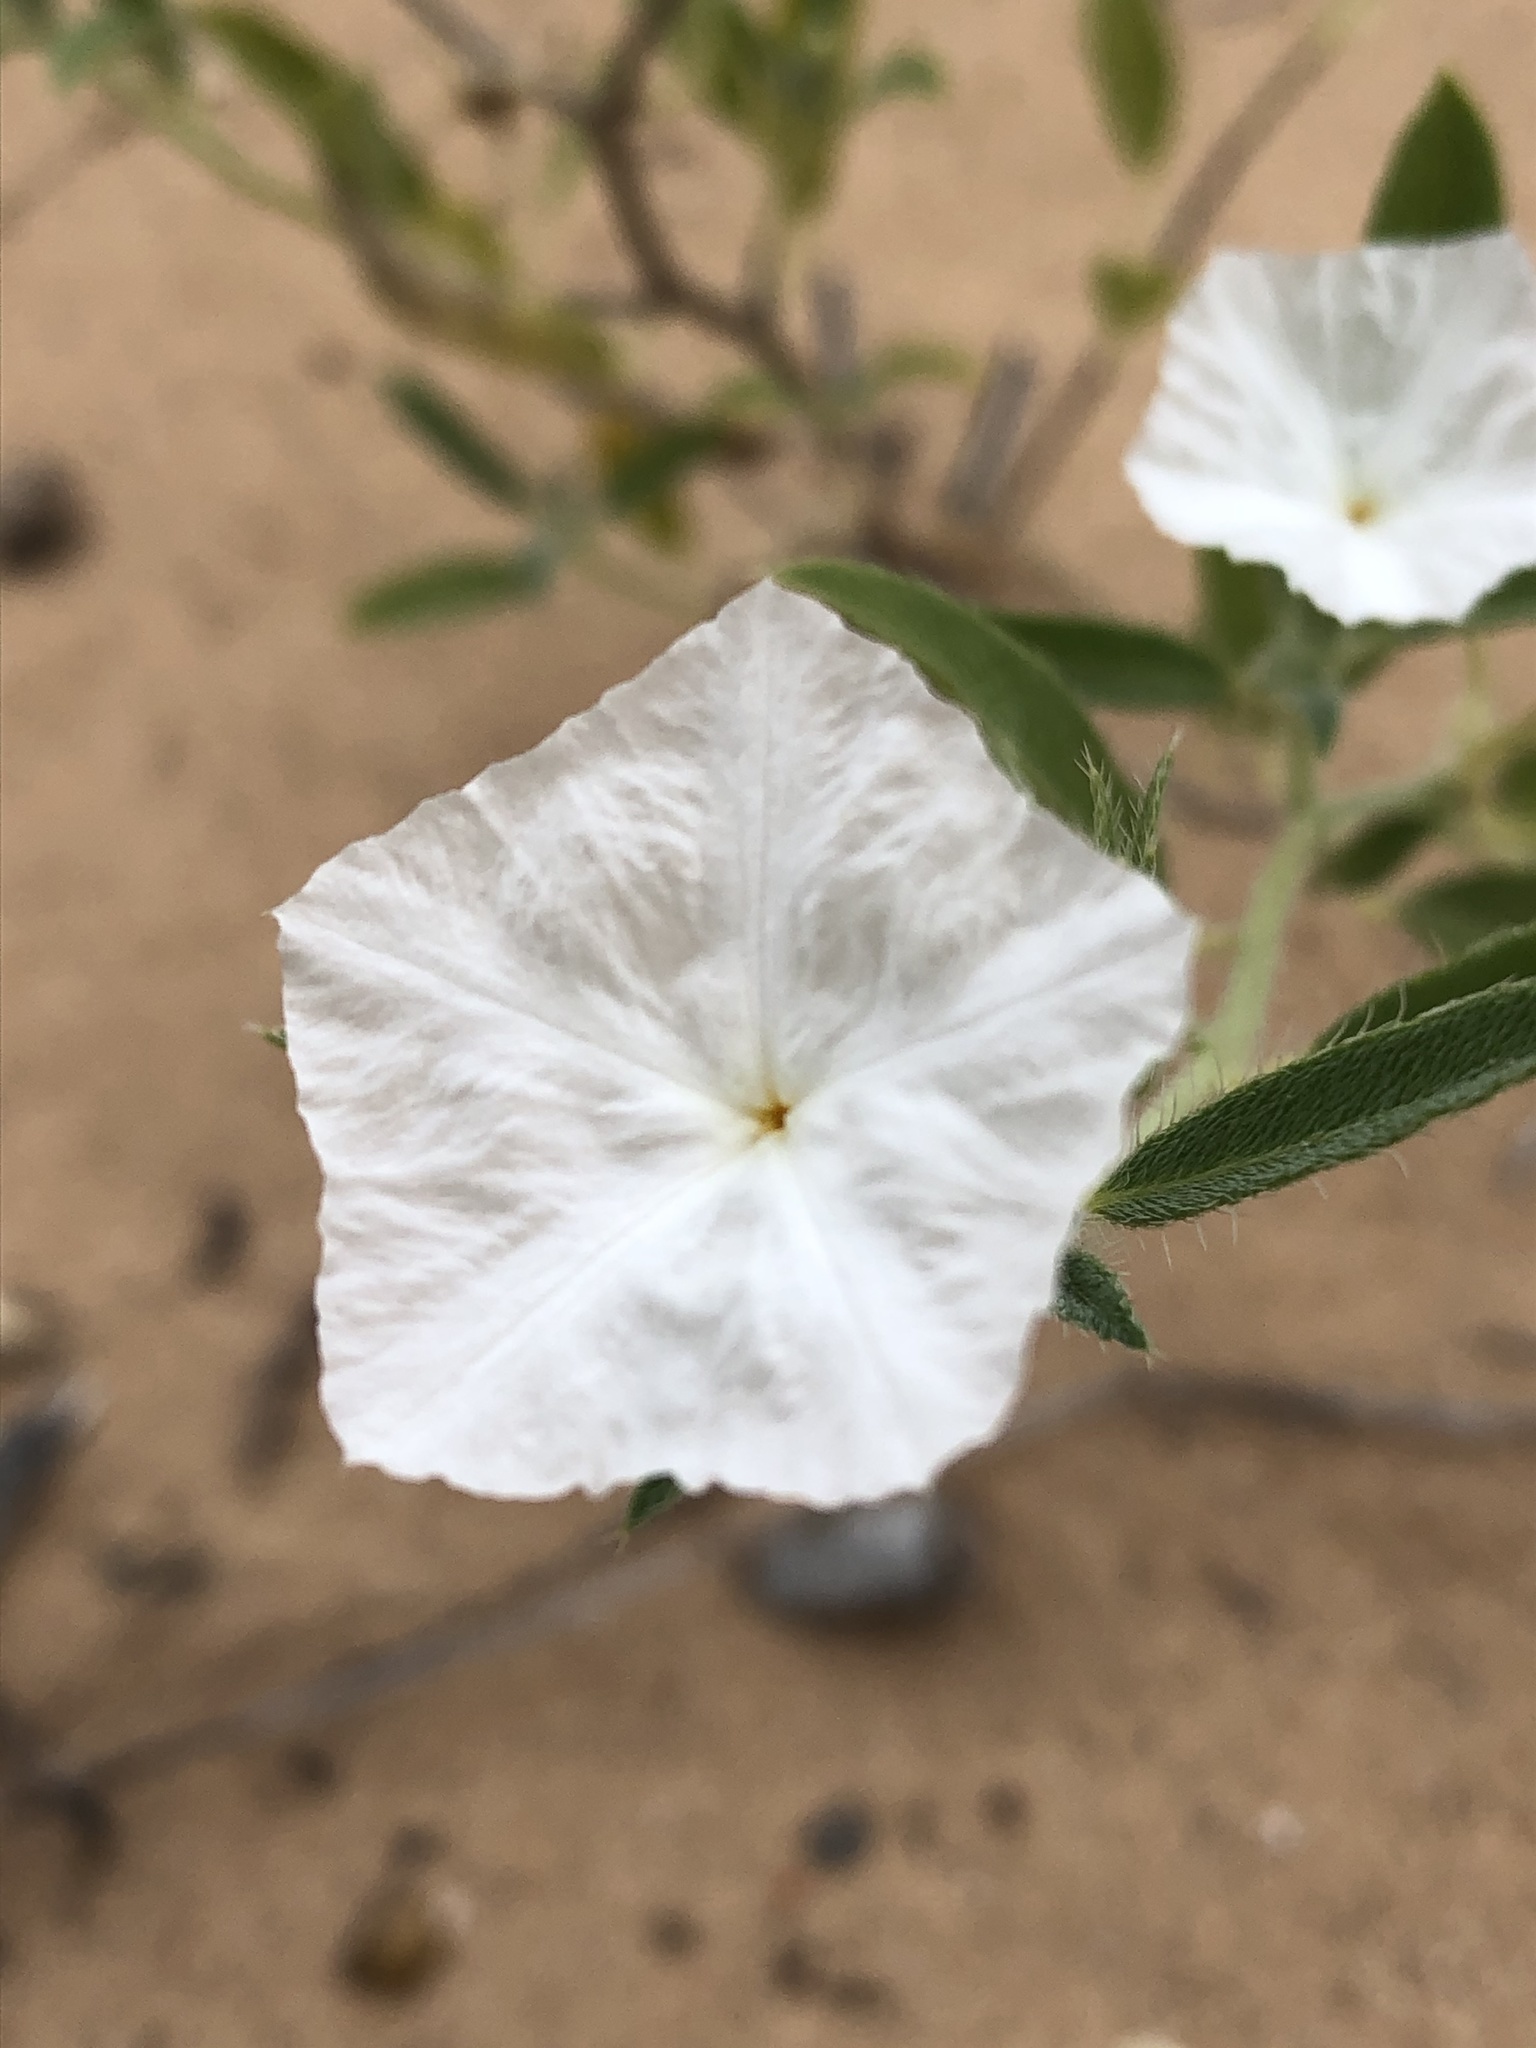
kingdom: Plantae
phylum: Tracheophyta
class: Magnoliopsida
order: Boraginales
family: Heliotropiaceae
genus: Euploca
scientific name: Euploca convolvulacea
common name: Bindweed heliotrope
